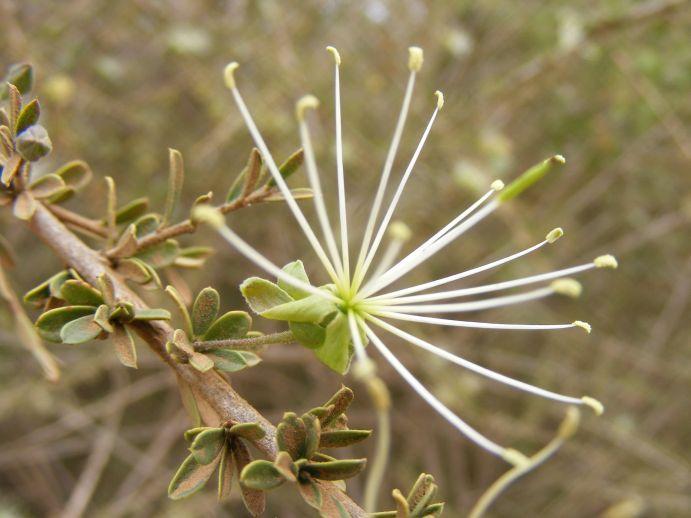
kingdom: Plantae
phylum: Tracheophyta
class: Magnoliopsida
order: Brassicales
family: Capparaceae
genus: Maerua
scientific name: Maerua parvifolia
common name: Dwarf bush-cherry
